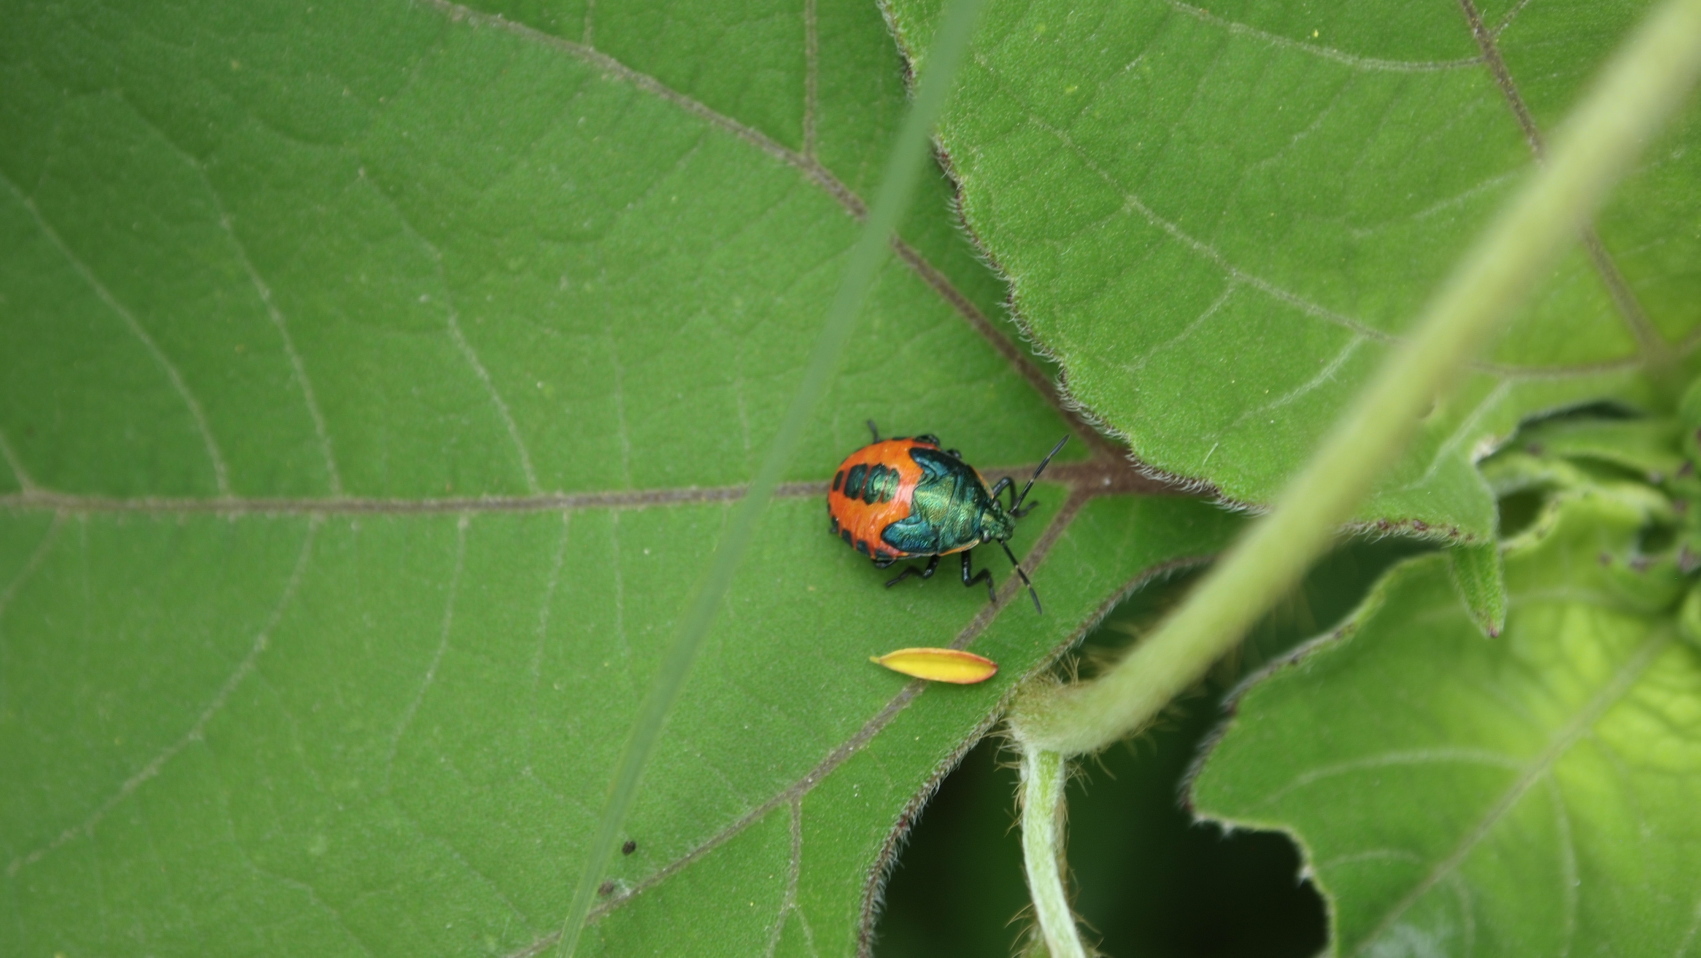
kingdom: Animalia
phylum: Arthropoda
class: Insecta
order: Hemiptera
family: Pentatomidae
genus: Euthyrhynchus
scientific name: Euthyrhynchus floridanus
